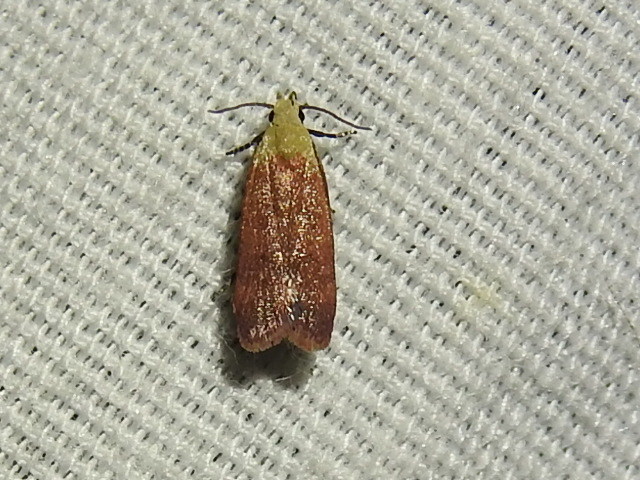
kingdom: Animalia
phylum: Arthropoda
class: Insecta
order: Lepidoptera
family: Gelechiidae
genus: Anacampsis
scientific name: Anacampsis fullonella
